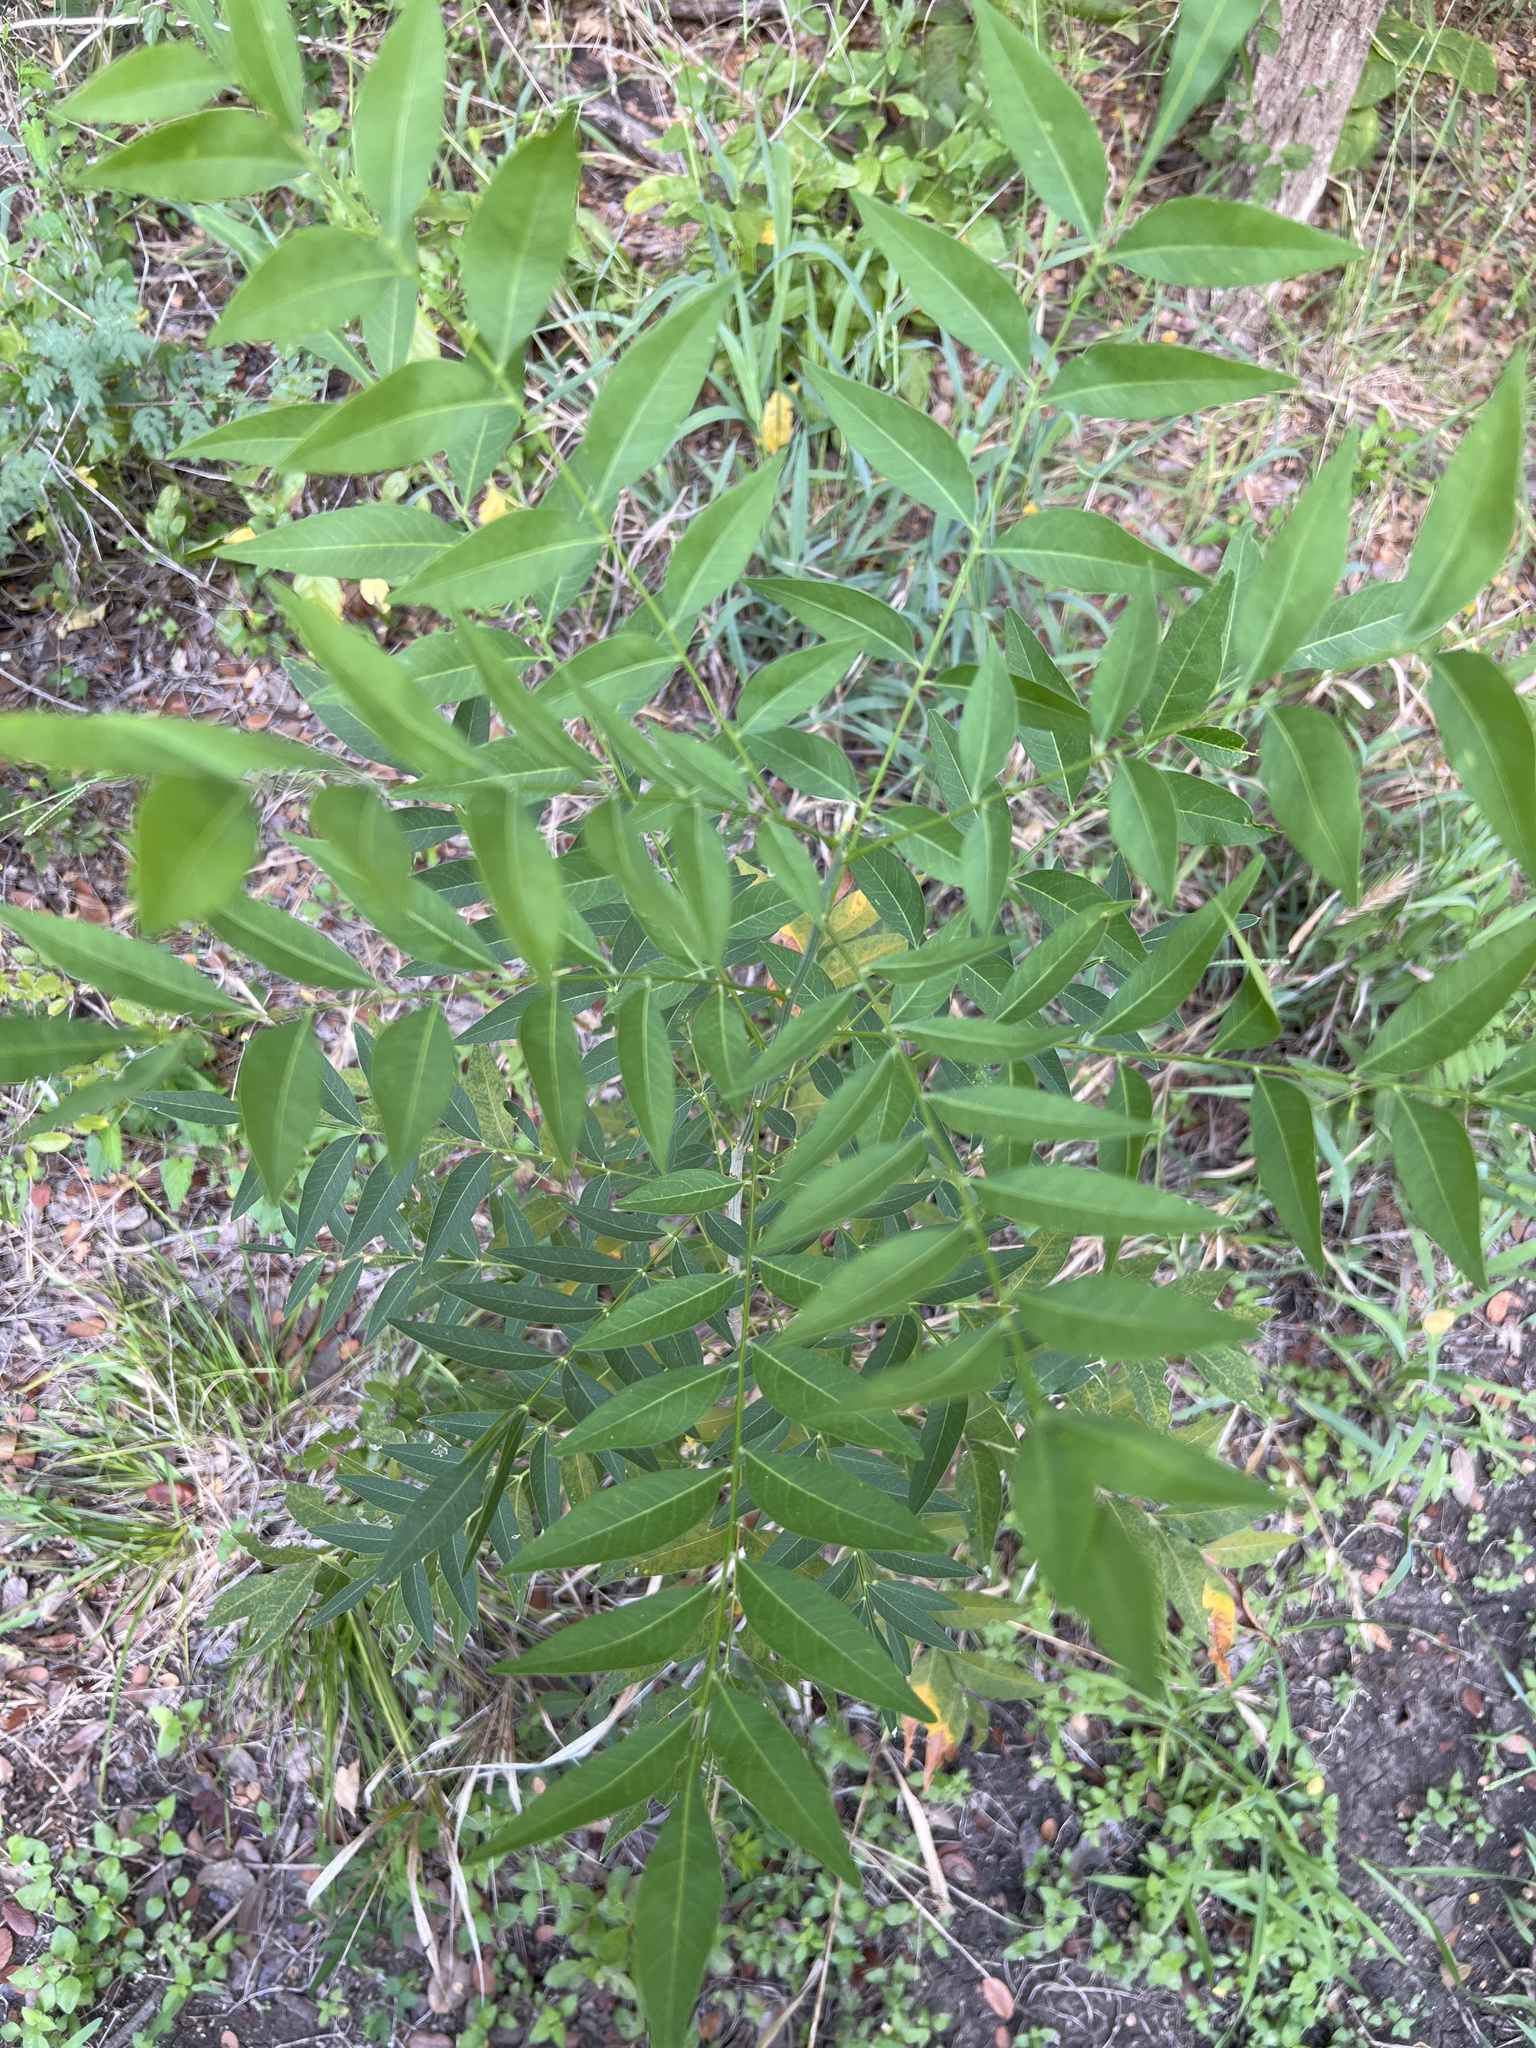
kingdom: Plantae
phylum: Tracheophyta
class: Magnoliopsida
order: Sapindales
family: Sapindaceae
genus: Sapindus
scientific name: Sapindus drummondii
